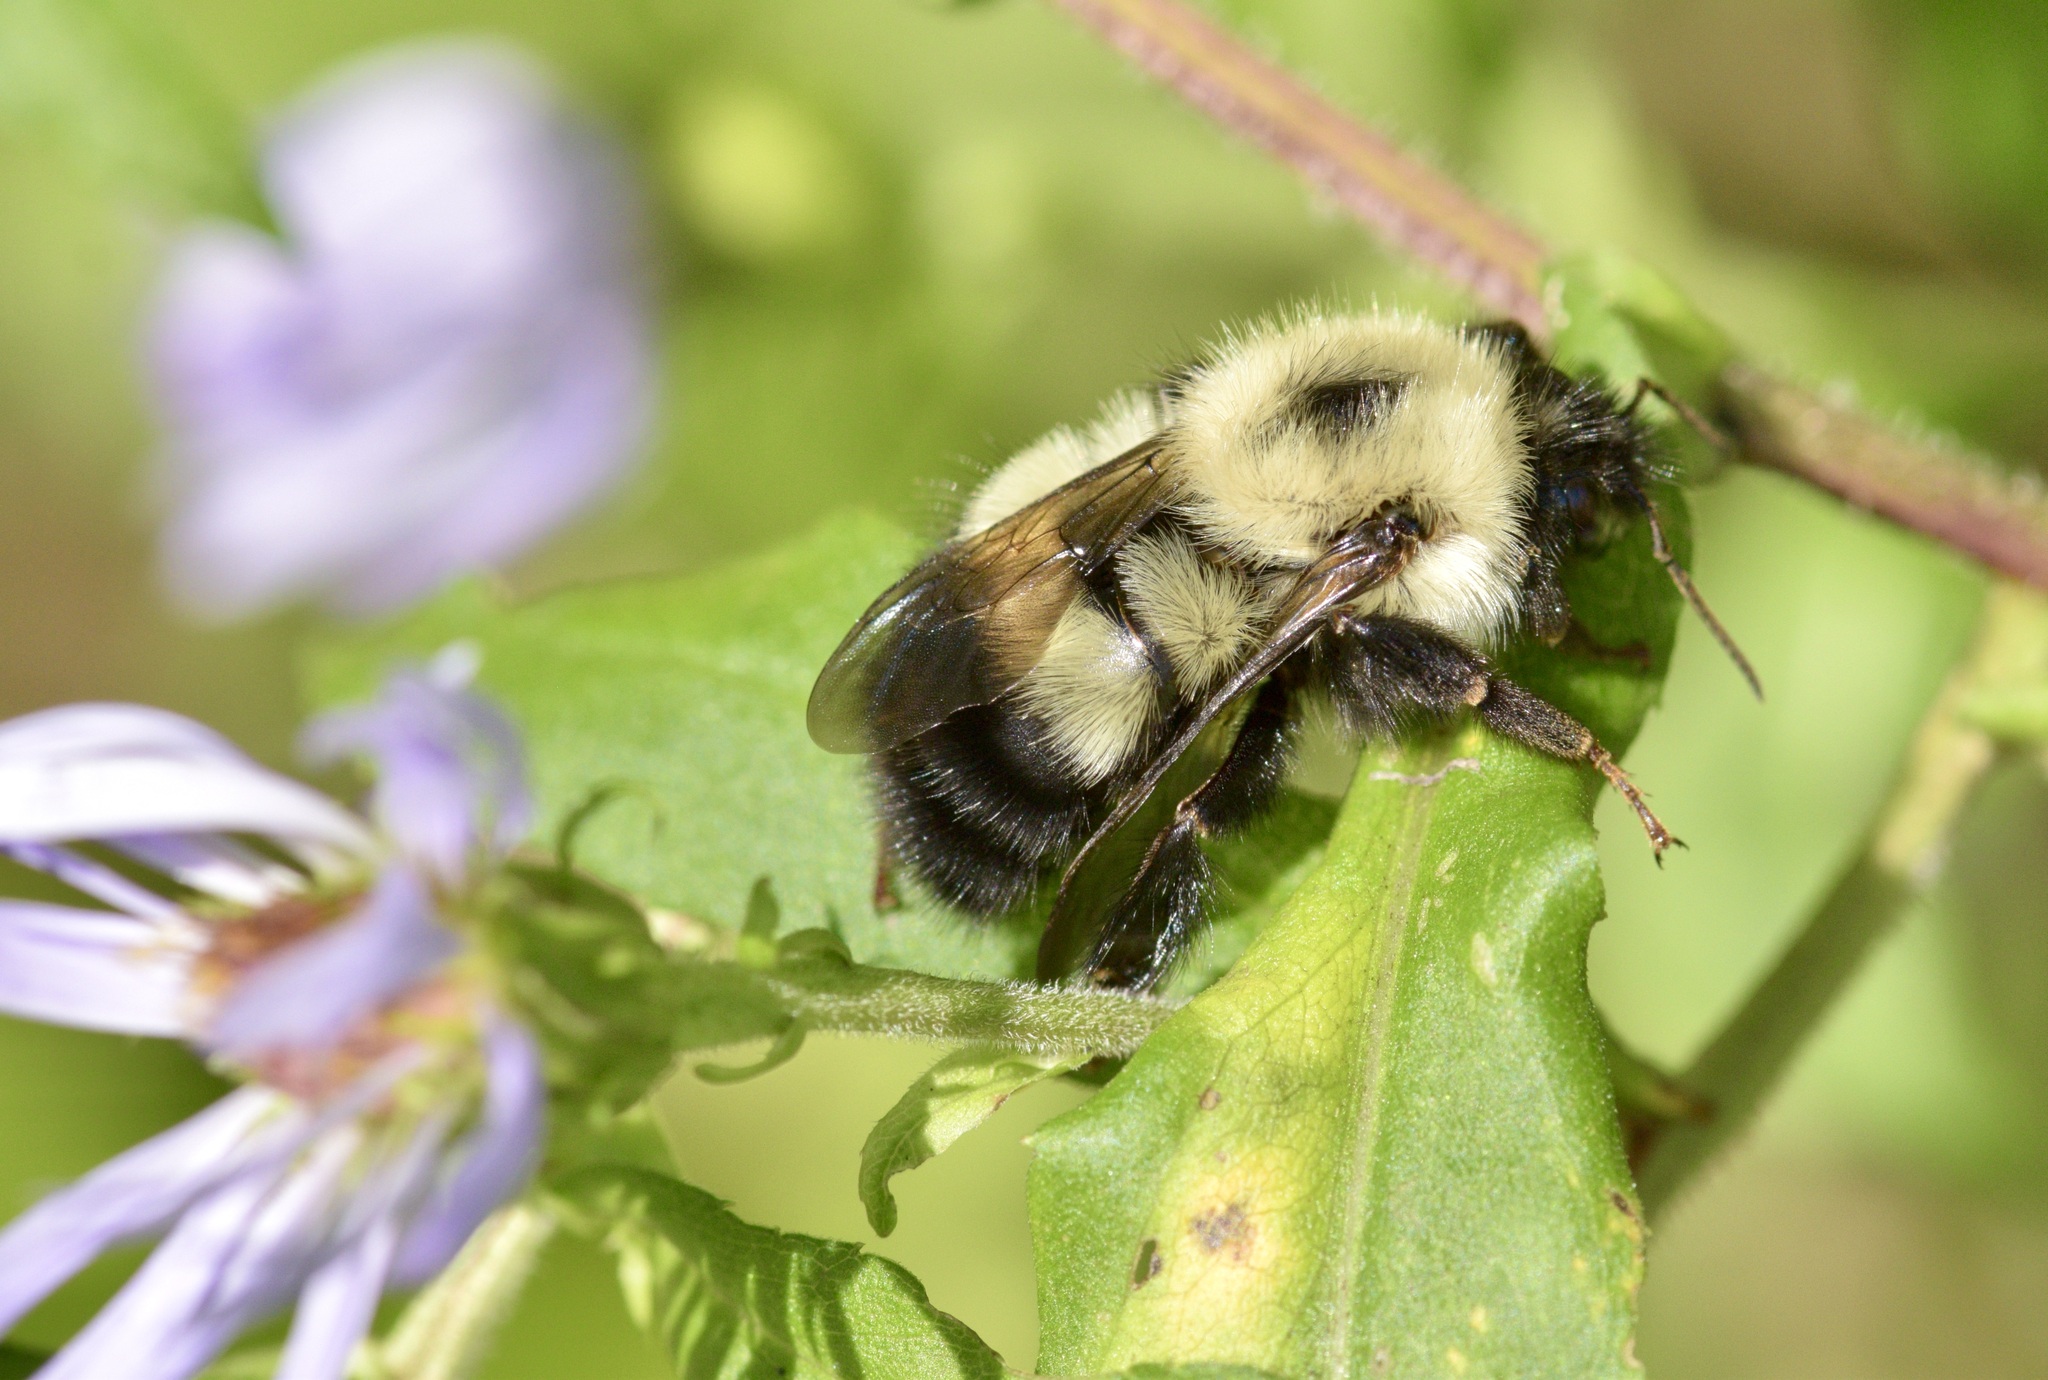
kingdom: Animalia
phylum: Arthropoda
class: Insecta
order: Hymenoptera
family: Apidae
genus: Pyrobombus
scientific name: Pyrobombus
